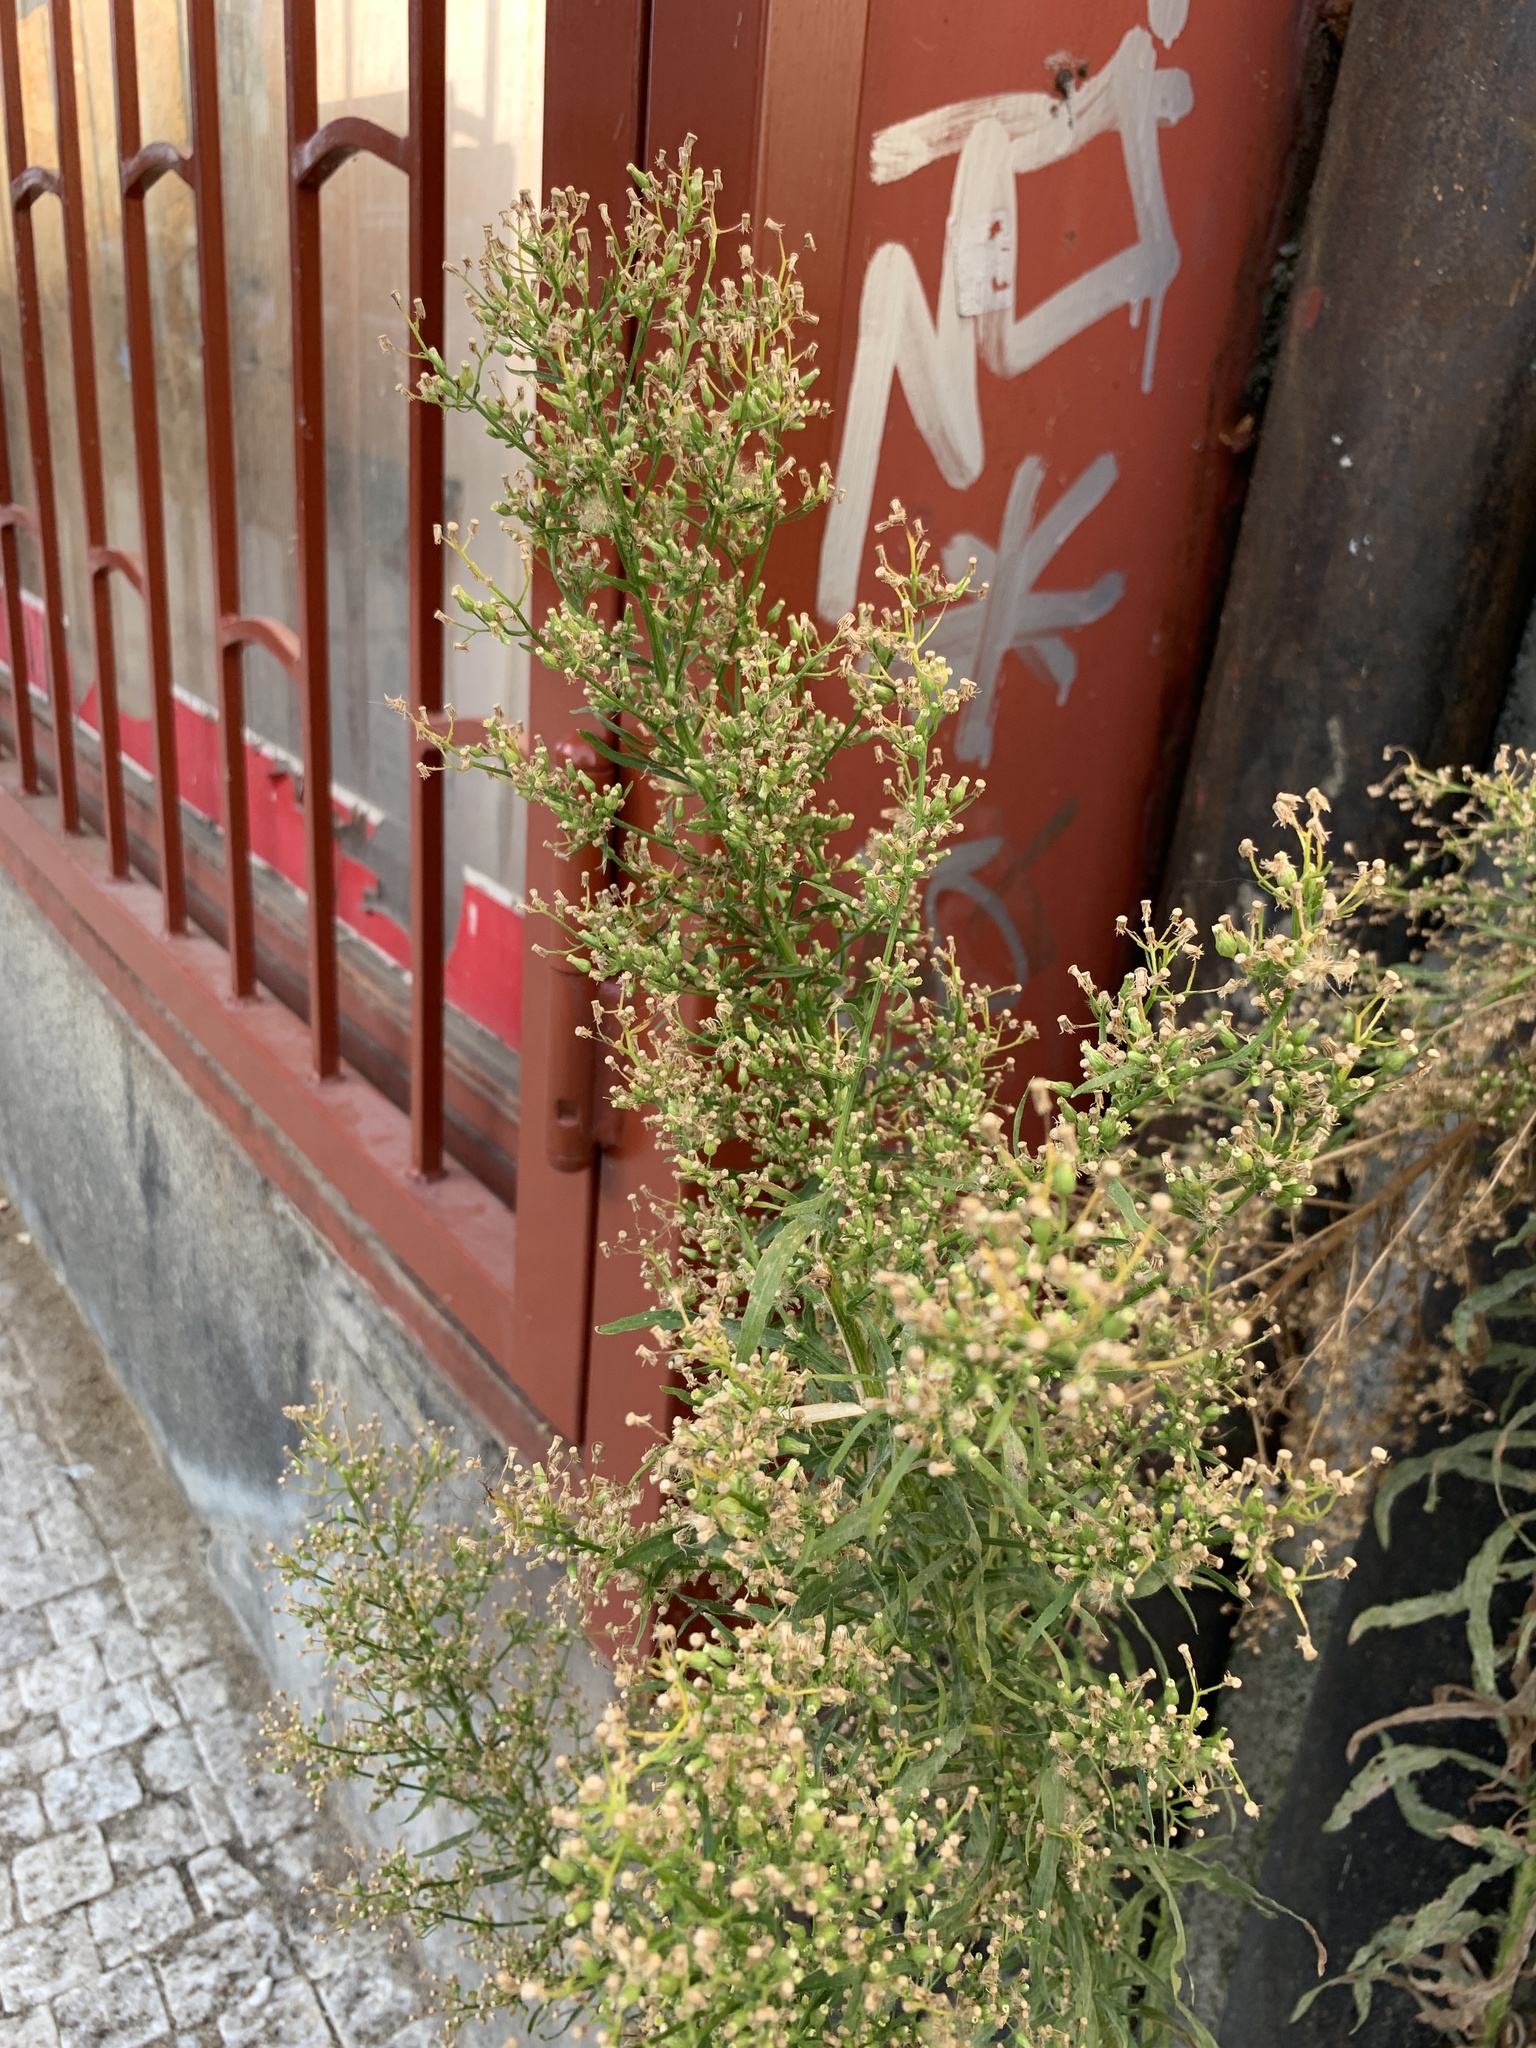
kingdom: Plantae
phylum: Tracheophyta
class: Magnoliopsida
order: Asterales
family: Asteraceae
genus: Erigeron
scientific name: Erigeron canadensis
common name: Canadian fleabane
